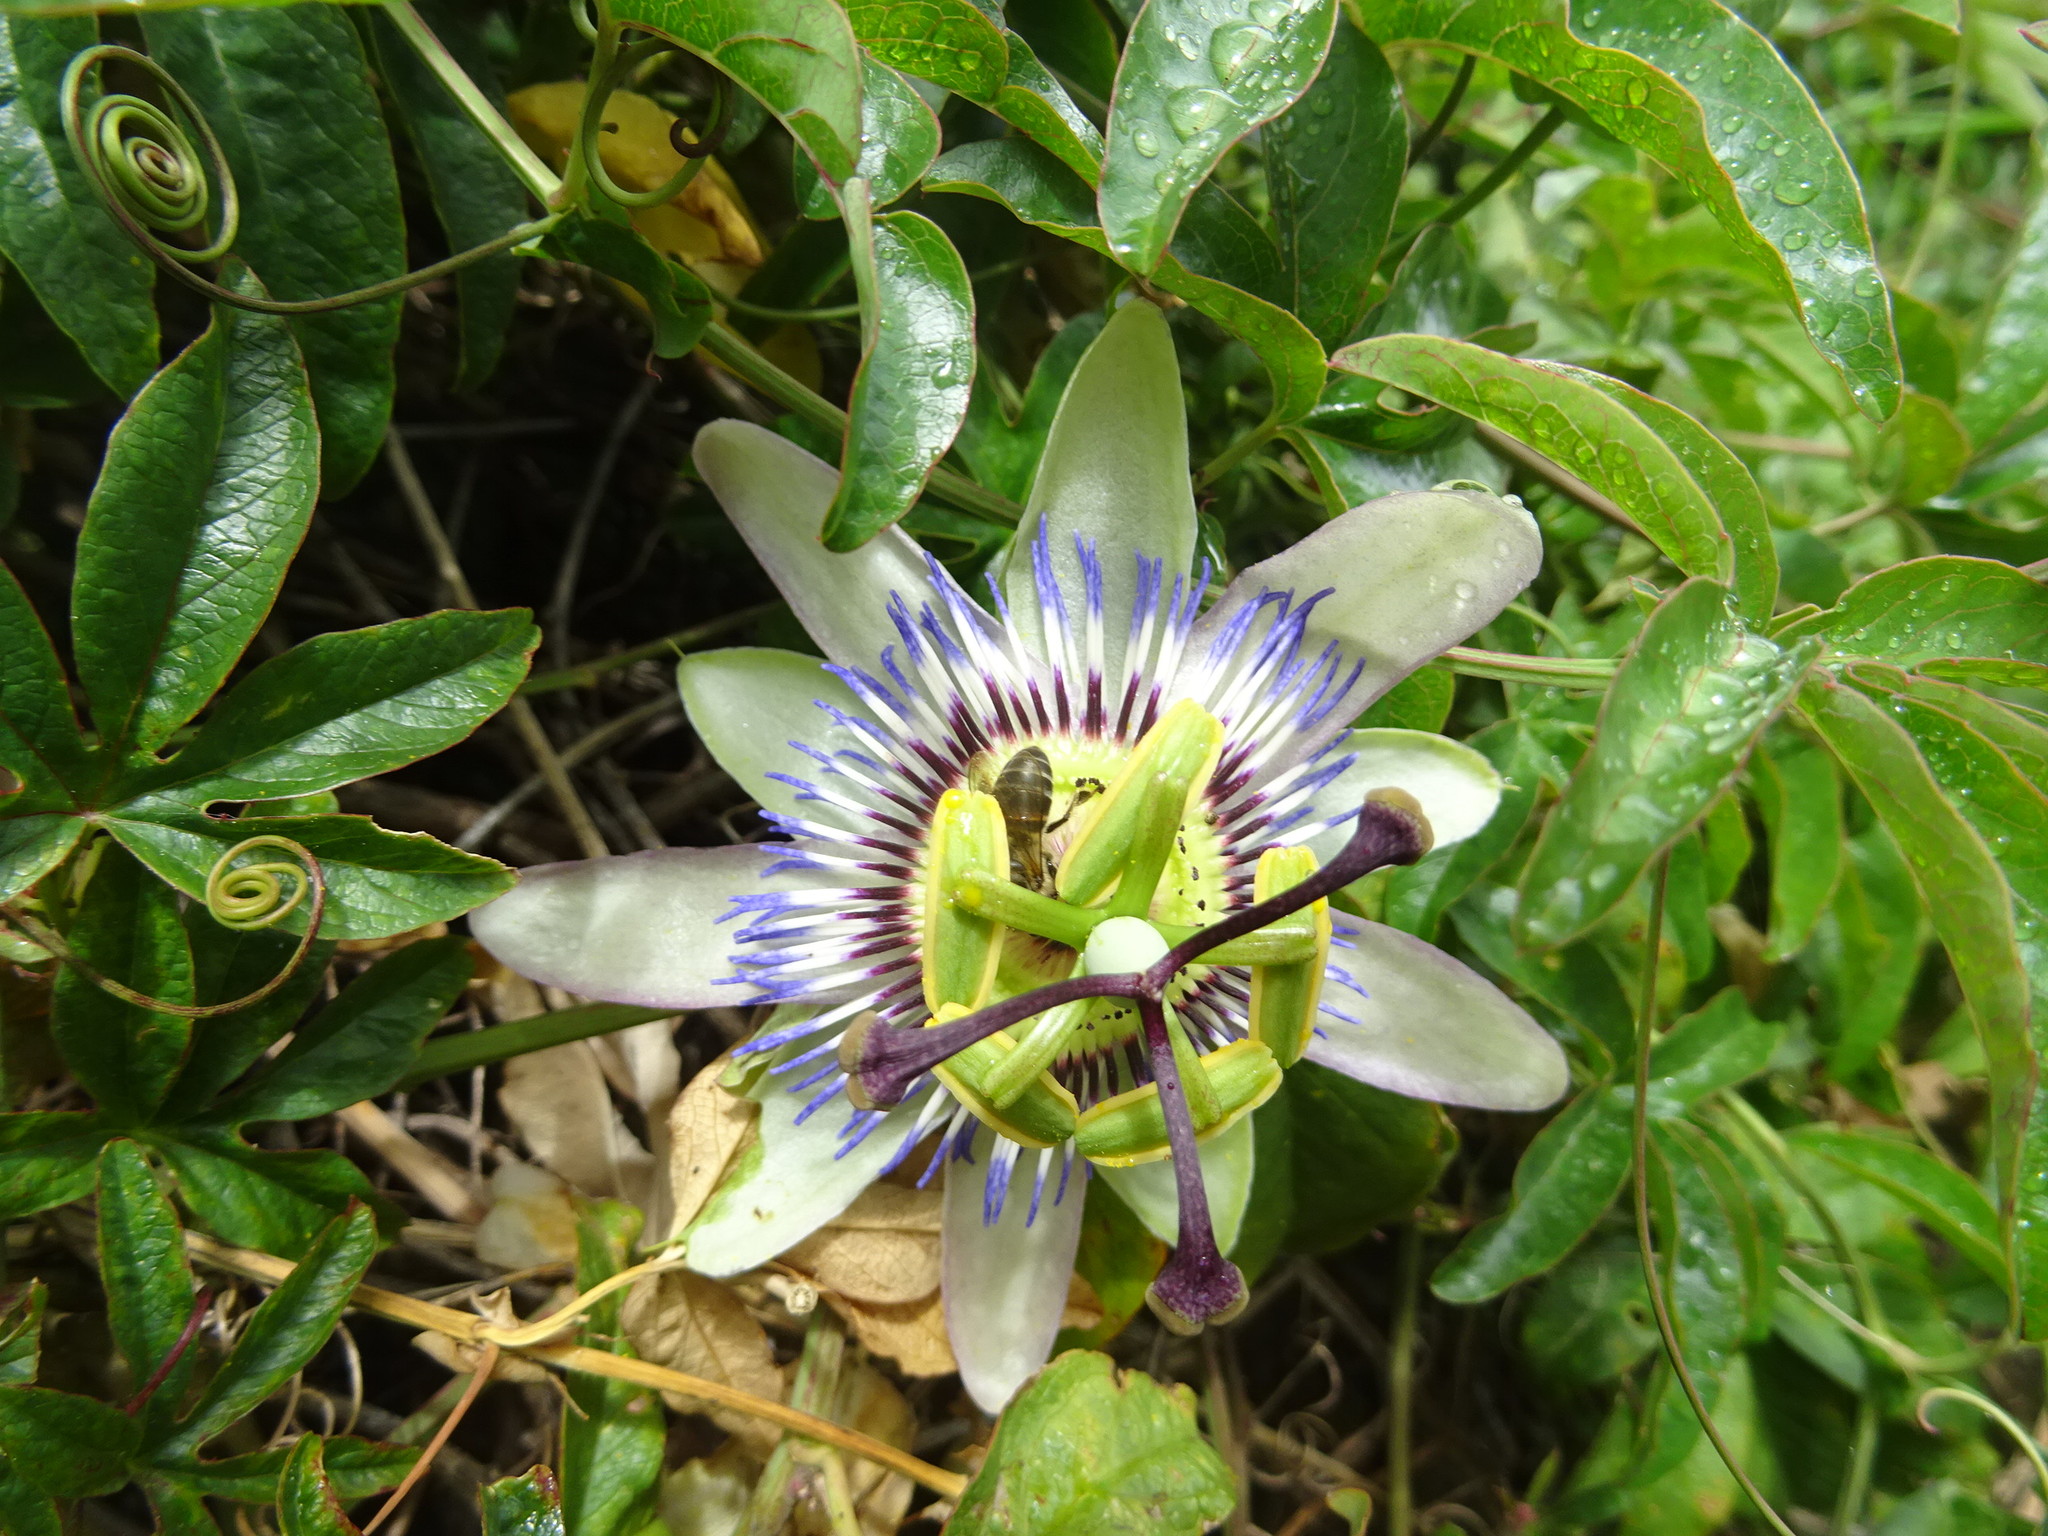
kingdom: Plantae
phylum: Tracheophyta
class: Magnoliopsida
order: Malpighiales
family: Passifloraceae
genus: Passiflora
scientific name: Passiflora caerulea
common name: Blue passionflower
